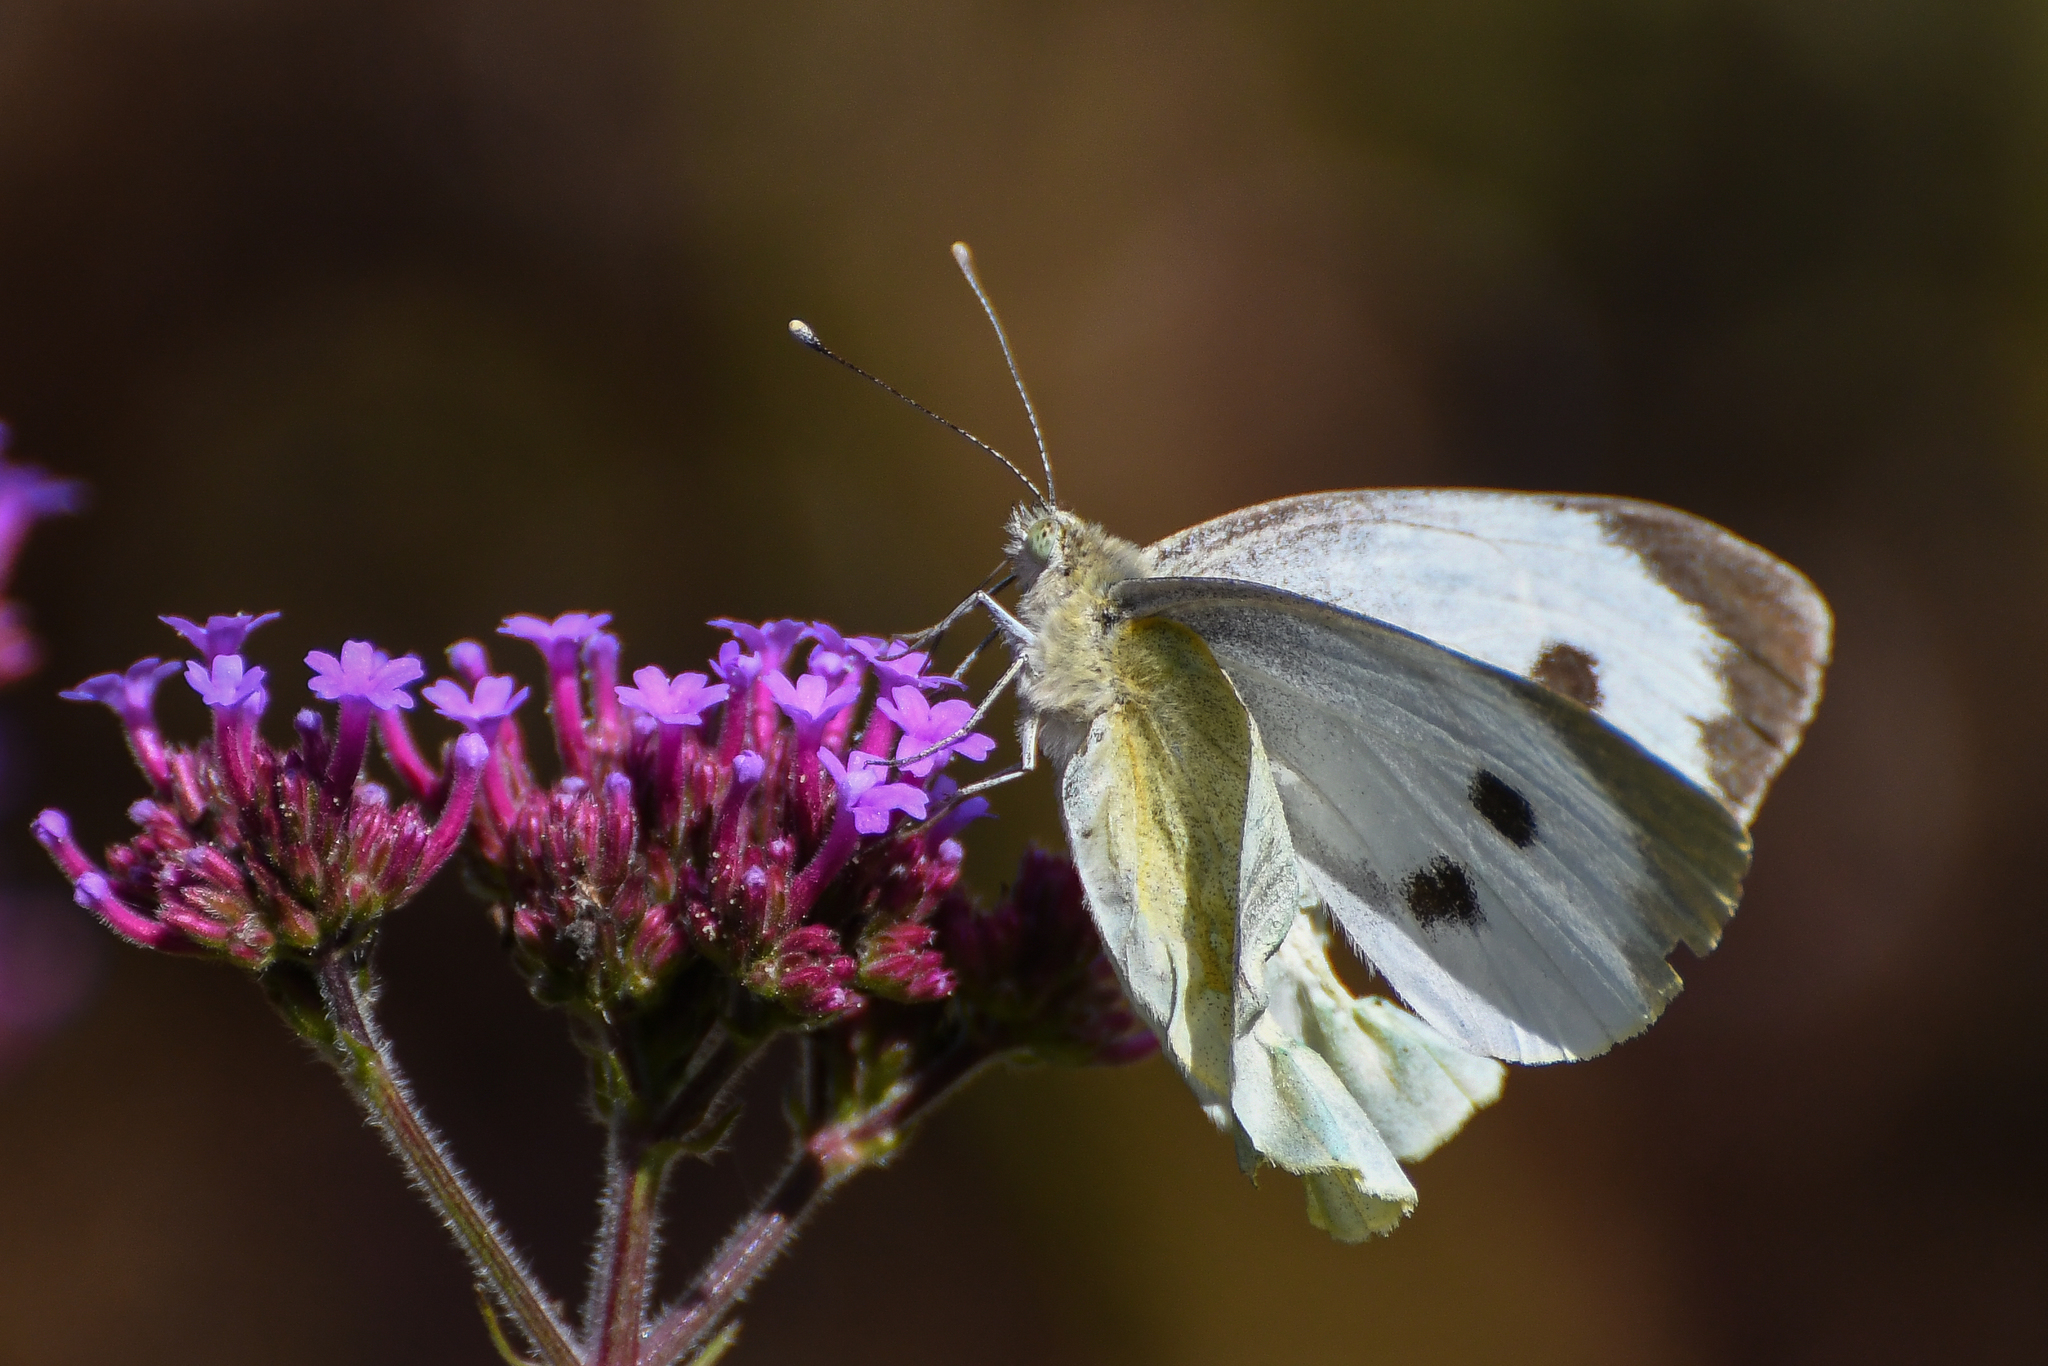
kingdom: Animalia
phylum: Arthropoda
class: Insecta
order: Lepidoptera
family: Pieridae
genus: Pieris
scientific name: Pieris brassicae
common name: Large white
